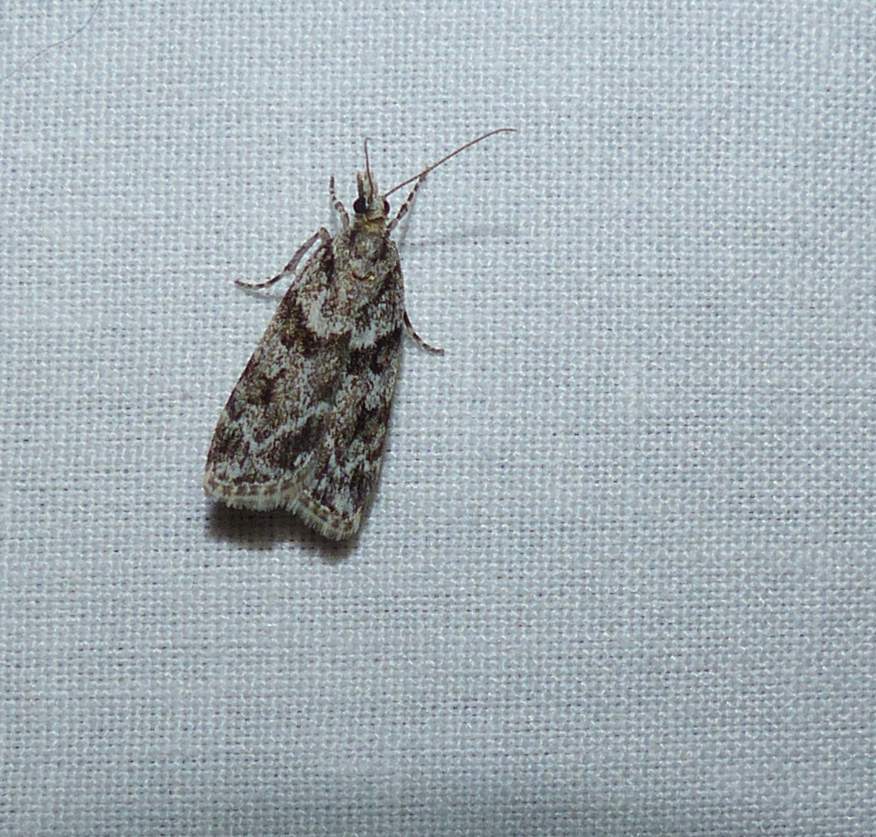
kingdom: Animalia
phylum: Arthropoda
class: Insecta
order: Lepidoptera
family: Crambidae
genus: Scoparia
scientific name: Scoparia biplagialis
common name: Double-striped scoparia moth
